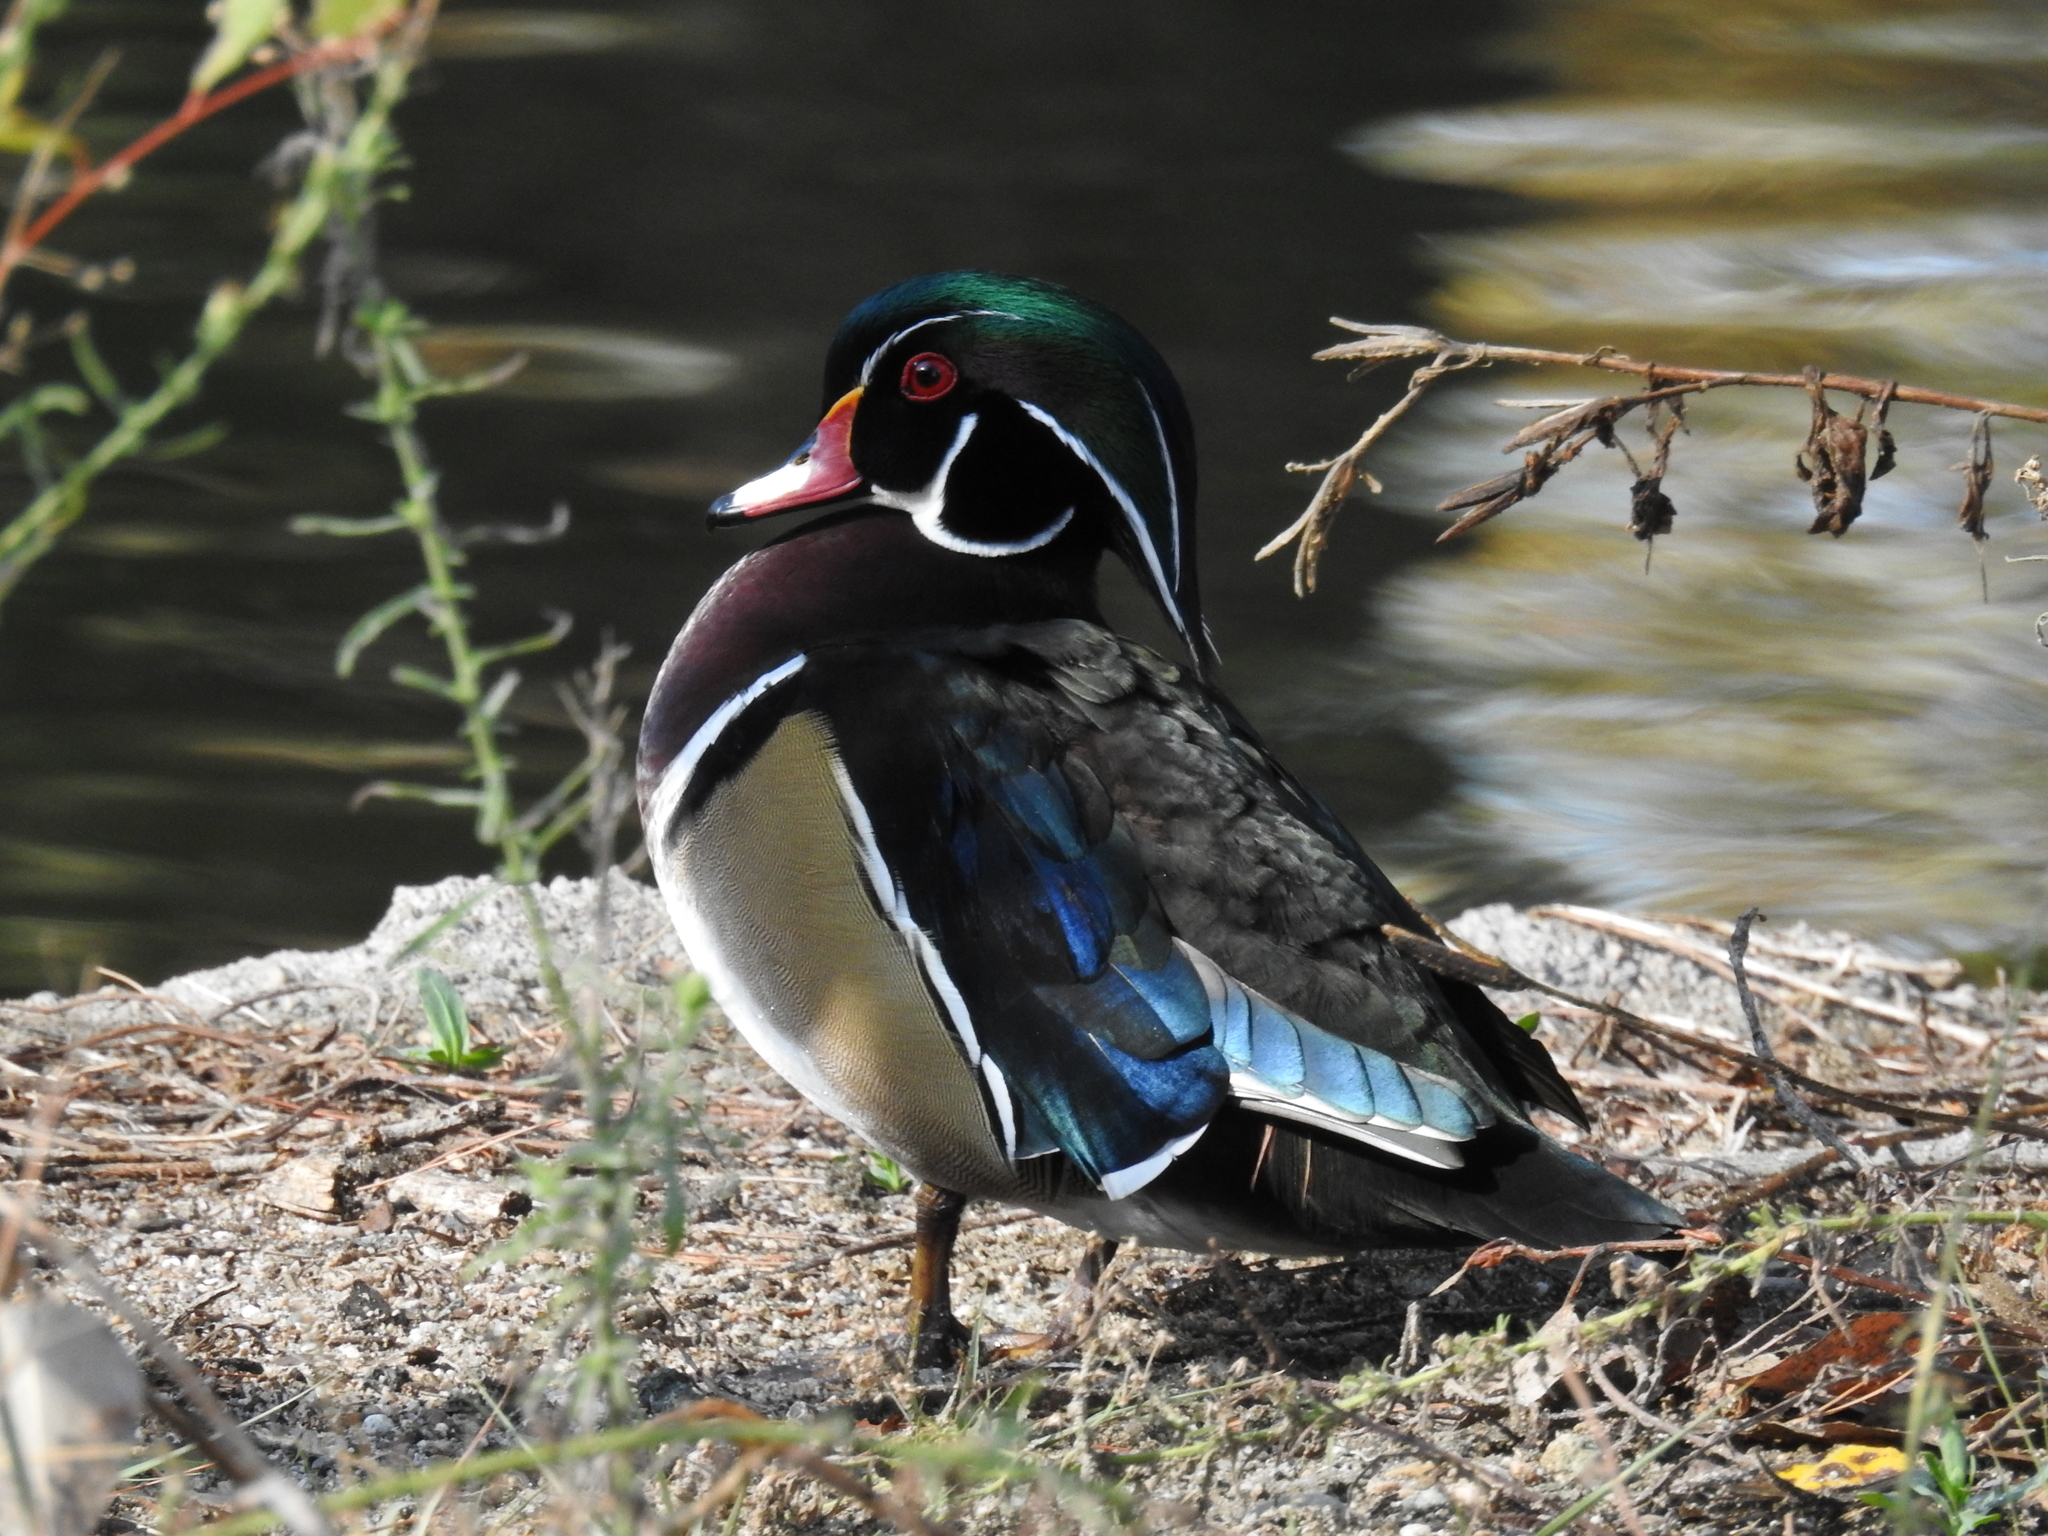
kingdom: Animalia
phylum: Chordata
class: Aves
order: Anseriformes
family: Anatidae
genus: Aix
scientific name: Aix sponsa
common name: Wood duck
